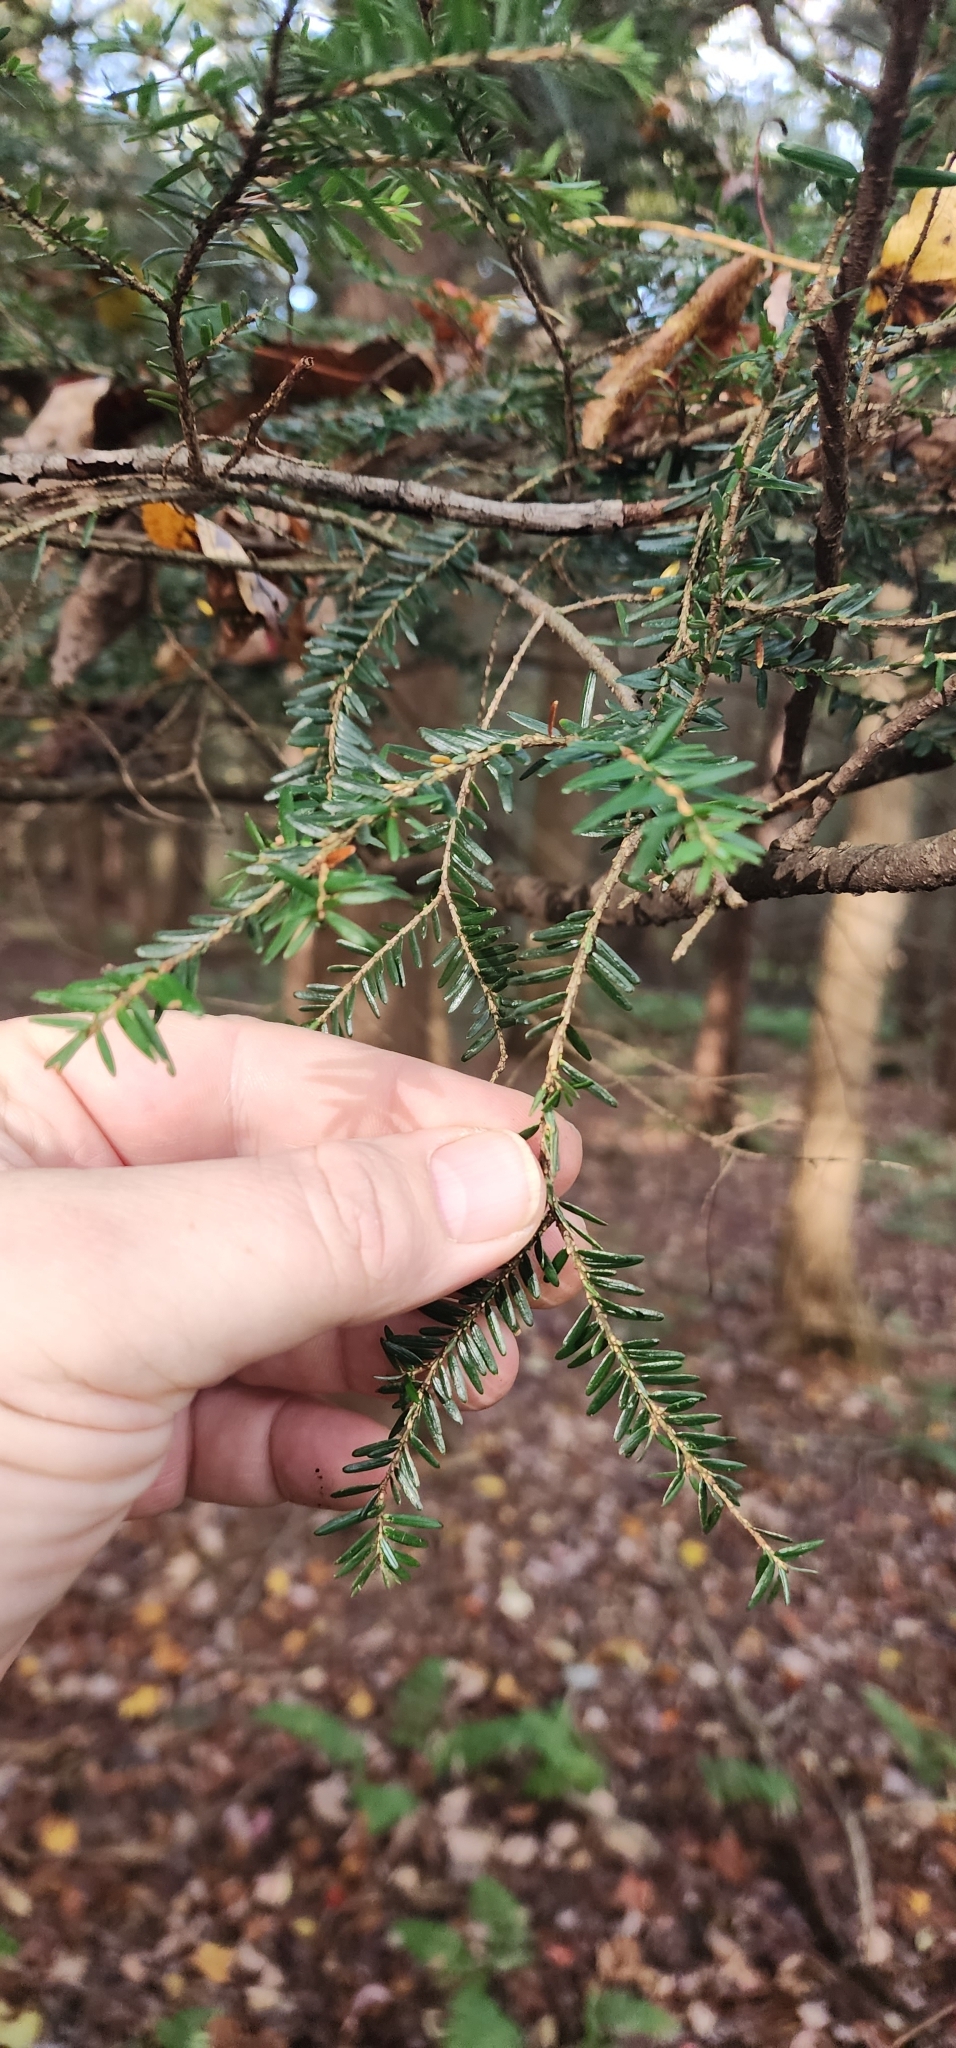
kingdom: Plantae
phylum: Tracheophyta
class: Pinopsida
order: Pinales
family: Pinaceae
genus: Tsuga
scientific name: Tsuga canadensis
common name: Eastern hemlock
